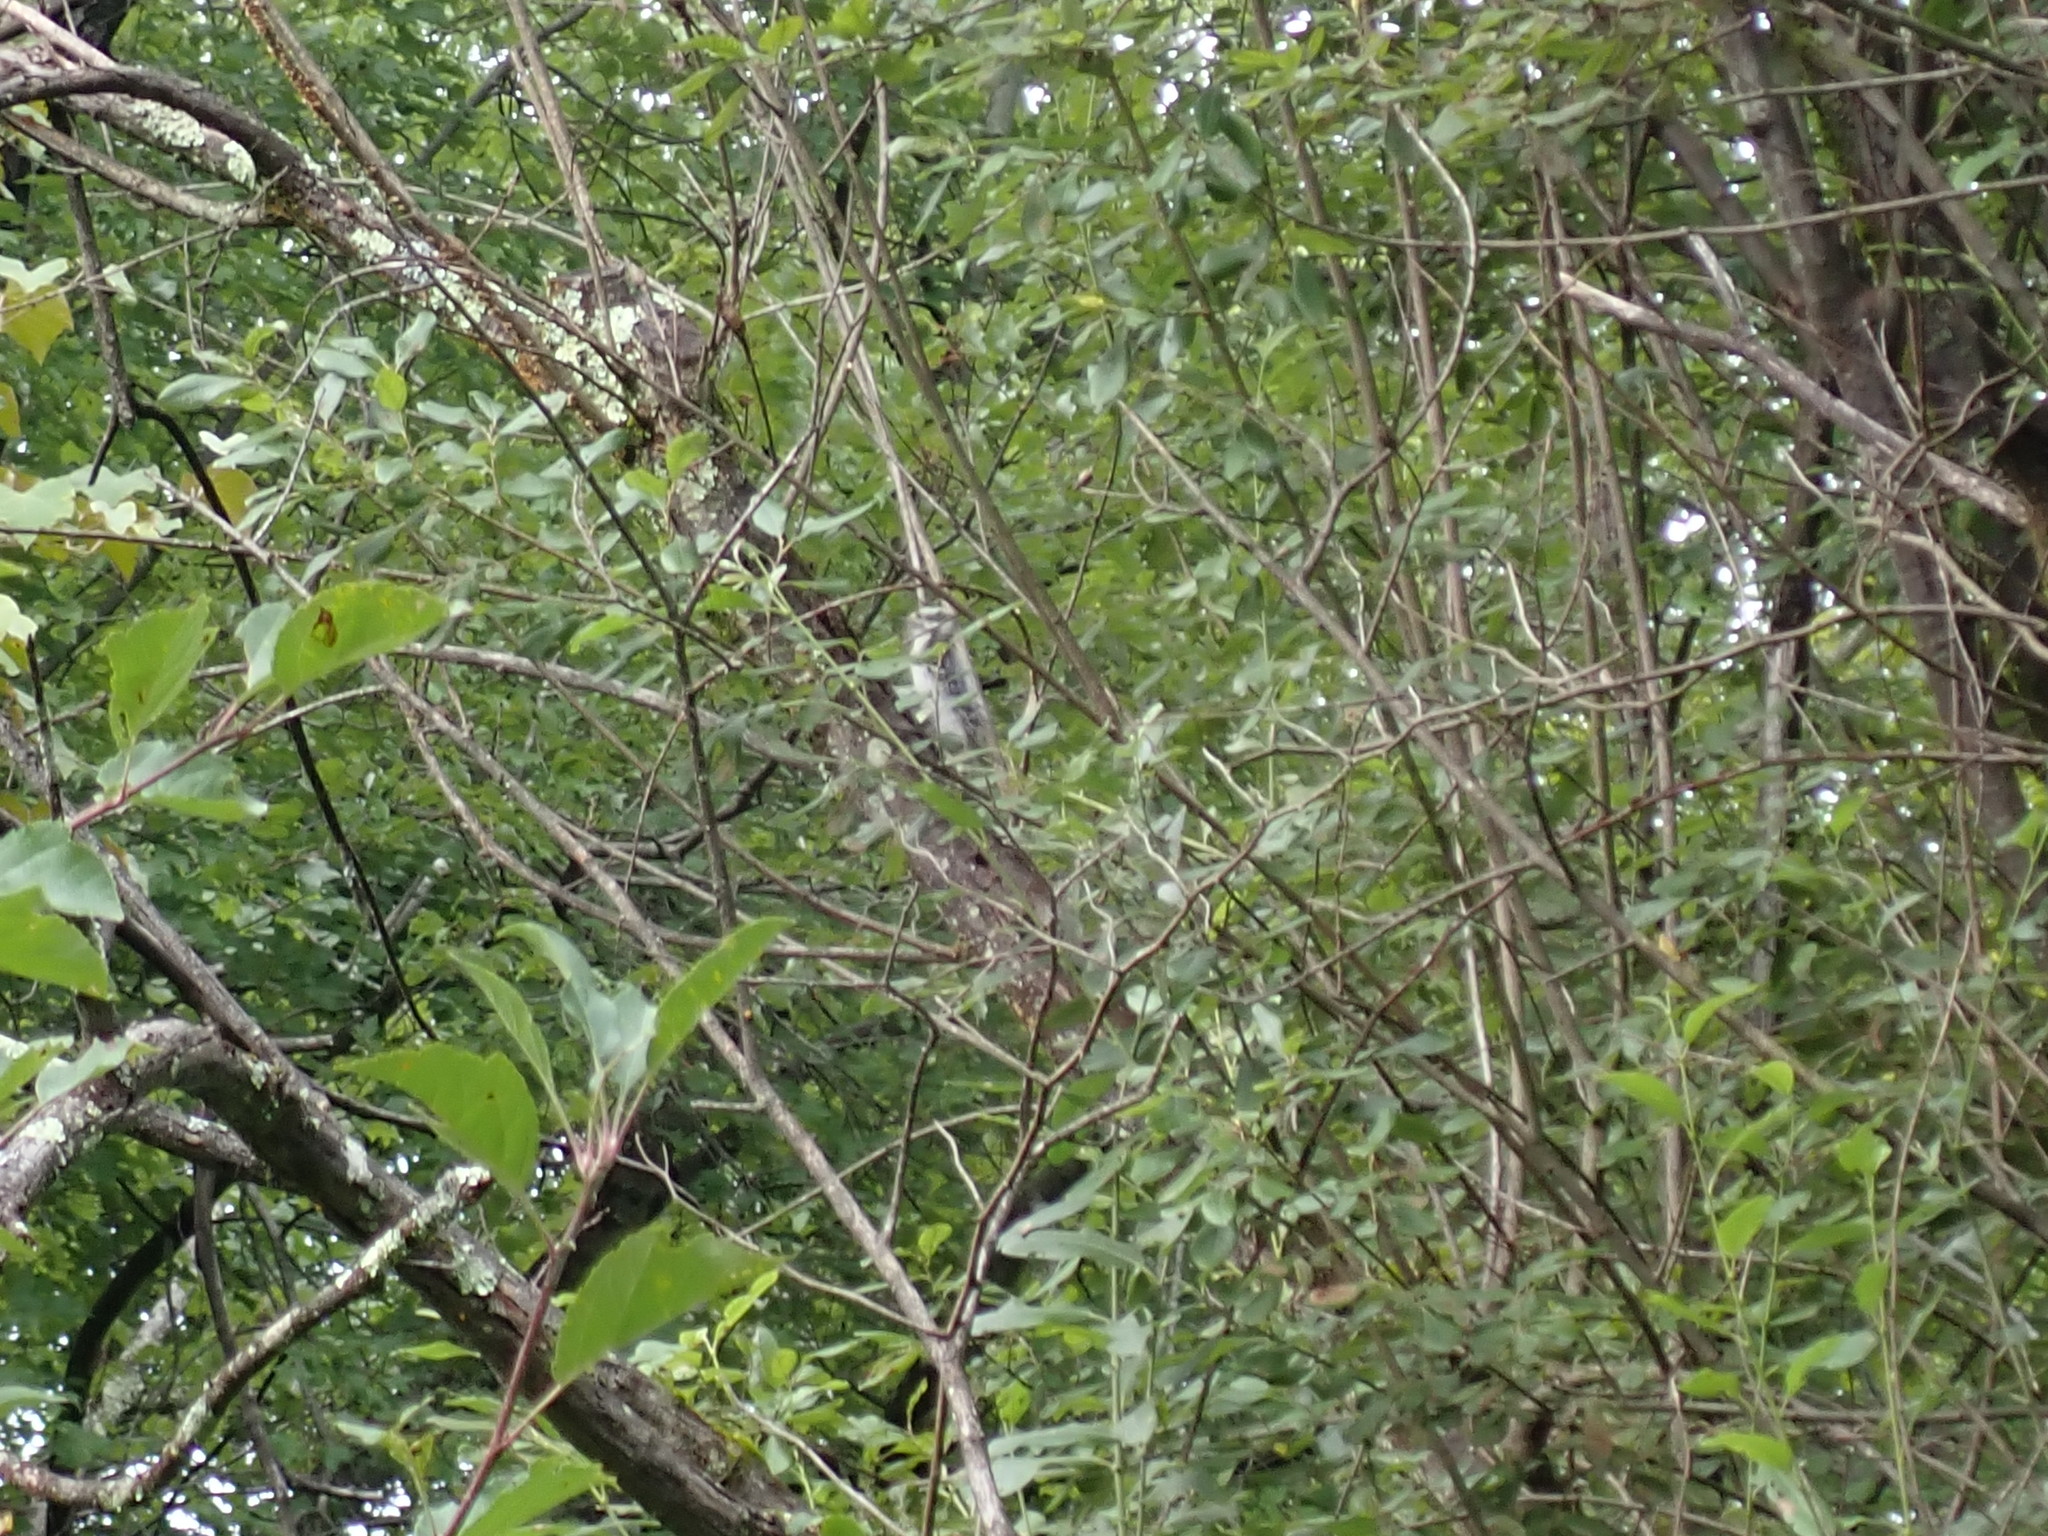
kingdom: Animalia
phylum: Chordata
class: Aves
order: Piciformes
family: Picidae
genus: Dryobates
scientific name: Dryobates pubescens
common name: Downy woodpecker
